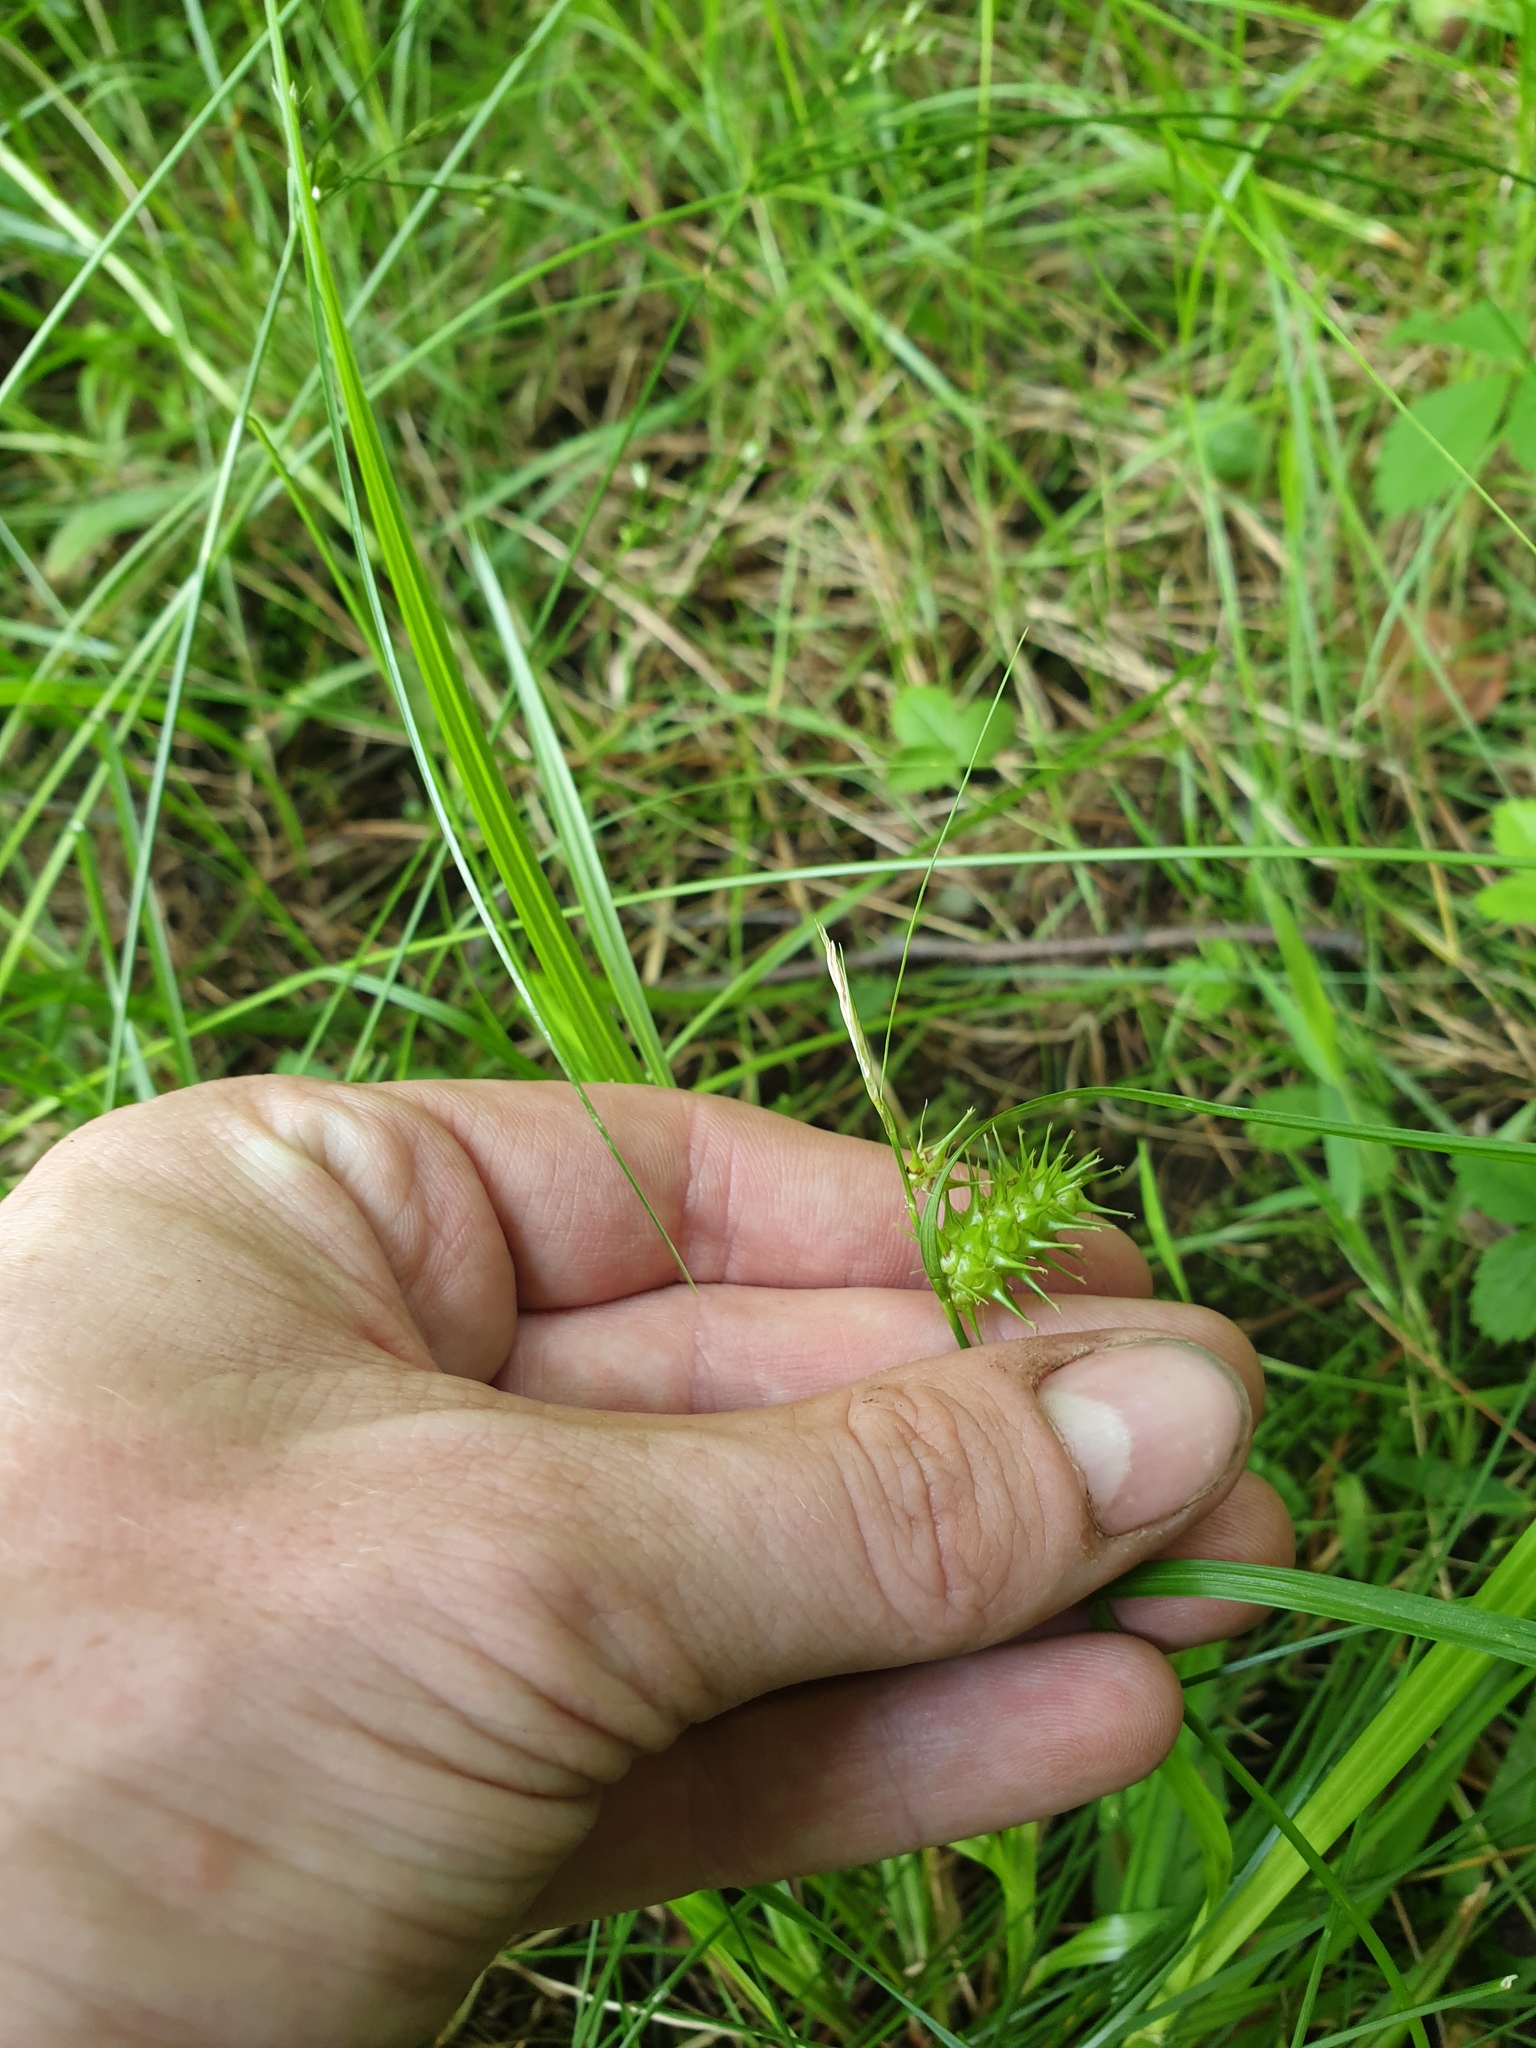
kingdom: Plantae
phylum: Tracheophyta
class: Liliopsida
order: Poales
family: Cyperaceae
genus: Carex
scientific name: Carex lurida
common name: Sallow sedge
